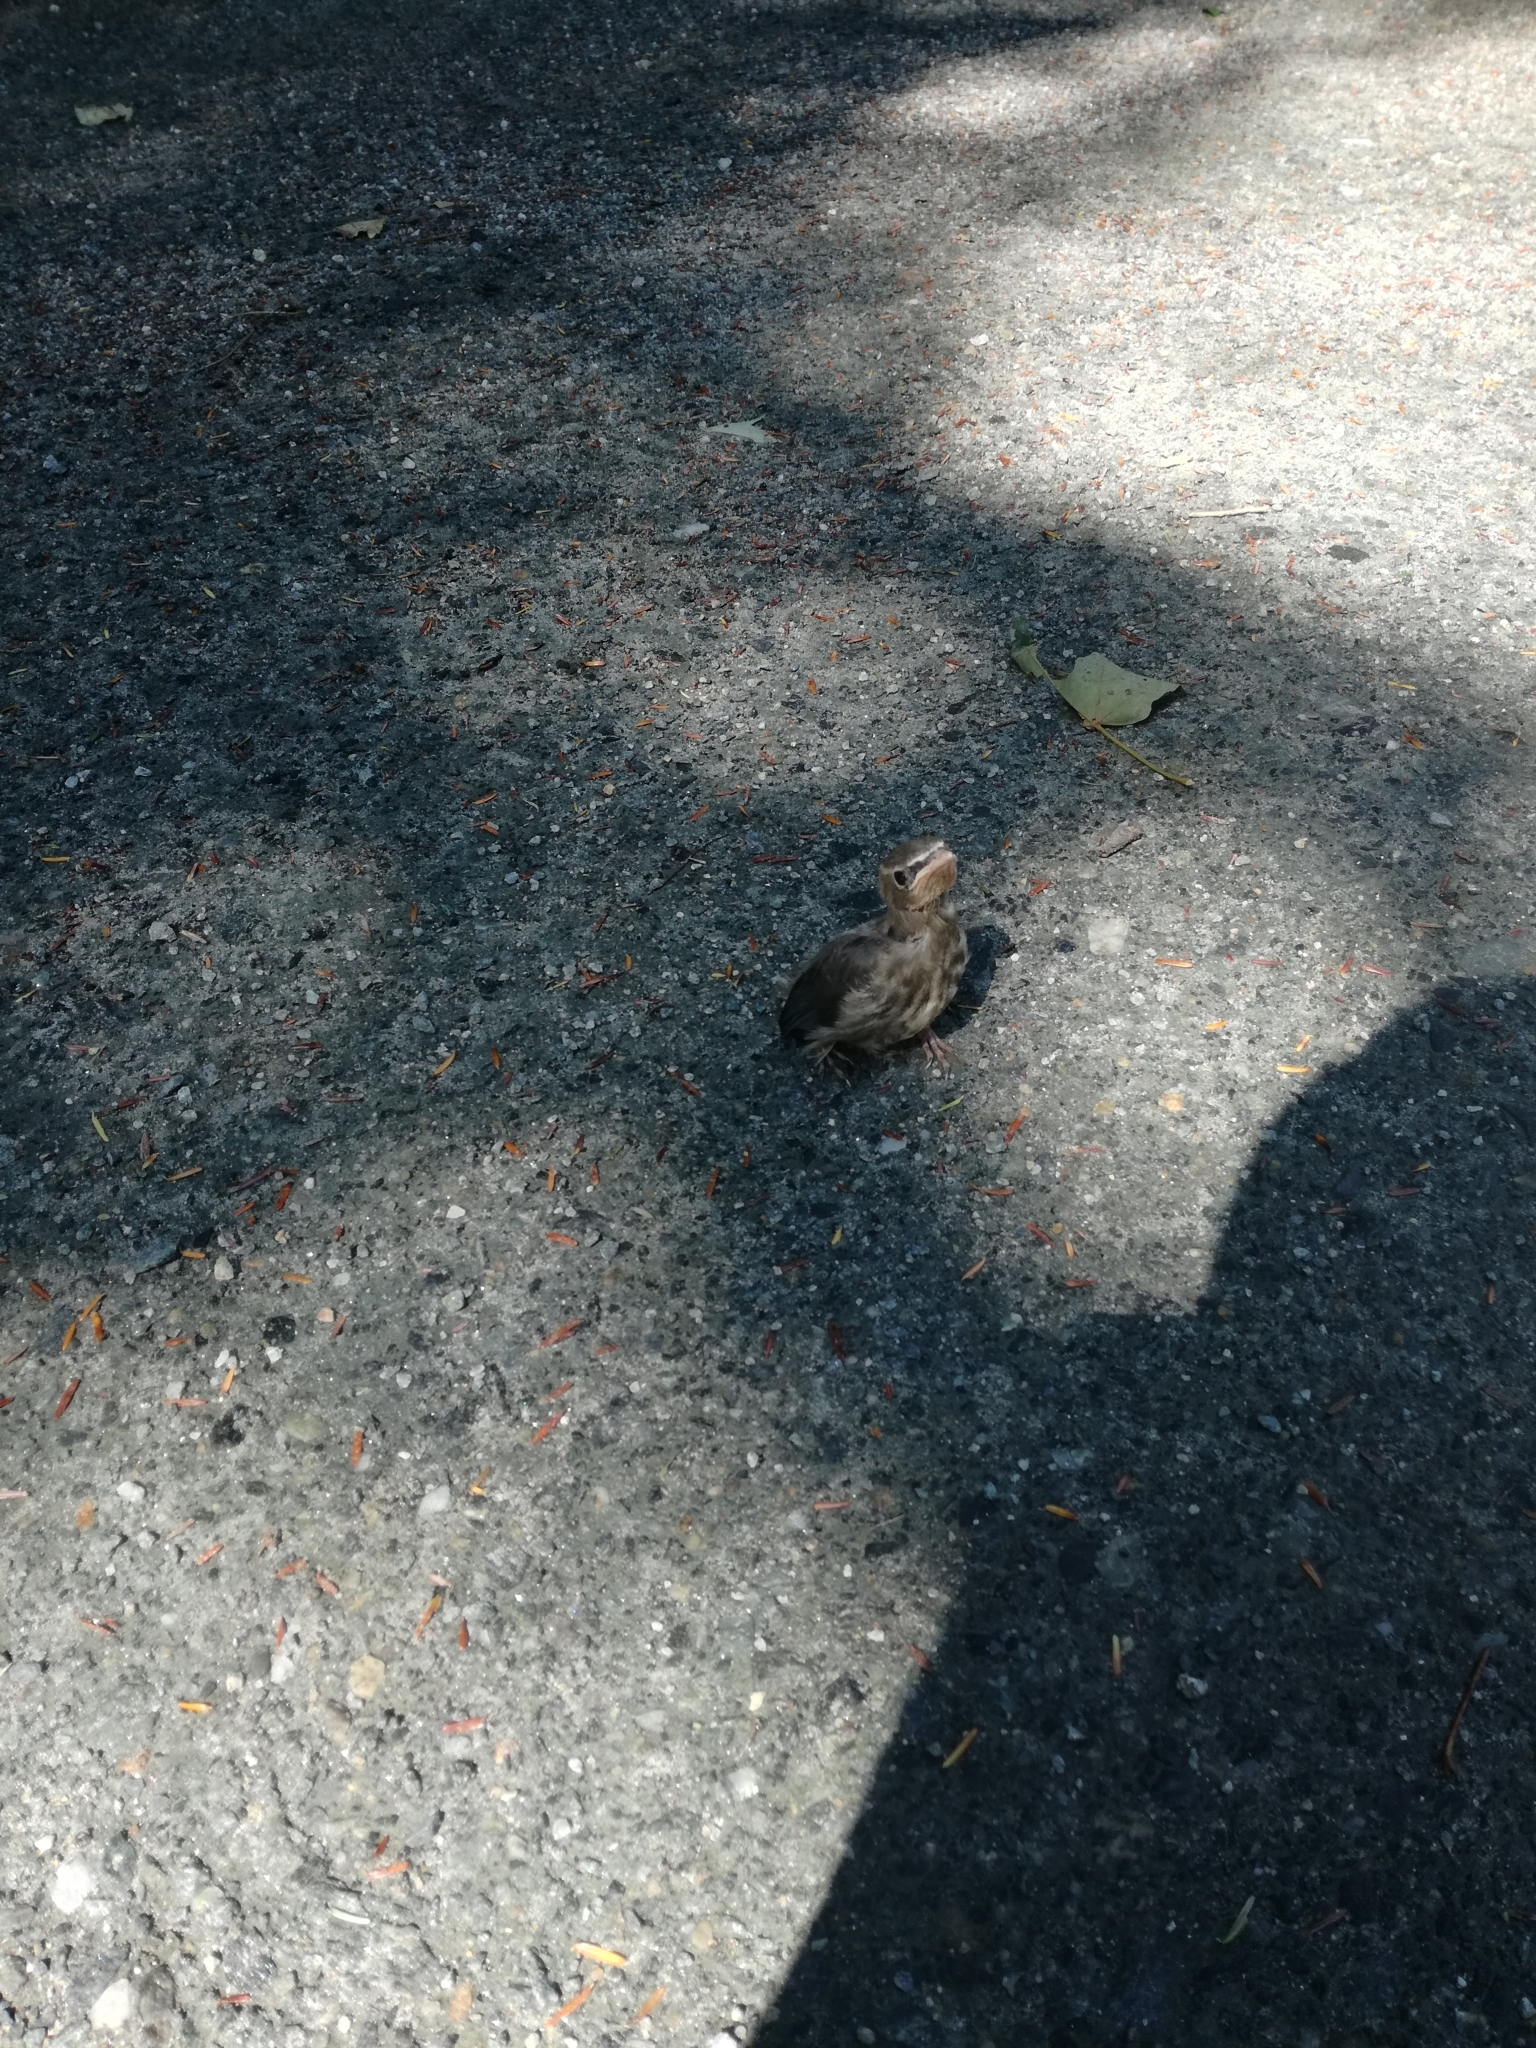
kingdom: Animalia
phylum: Chordata
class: Aves
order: Passeriformes
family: Bombycillidae
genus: Bombycilla
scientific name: Bombycilla cedrorum
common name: Cedar waxwing
